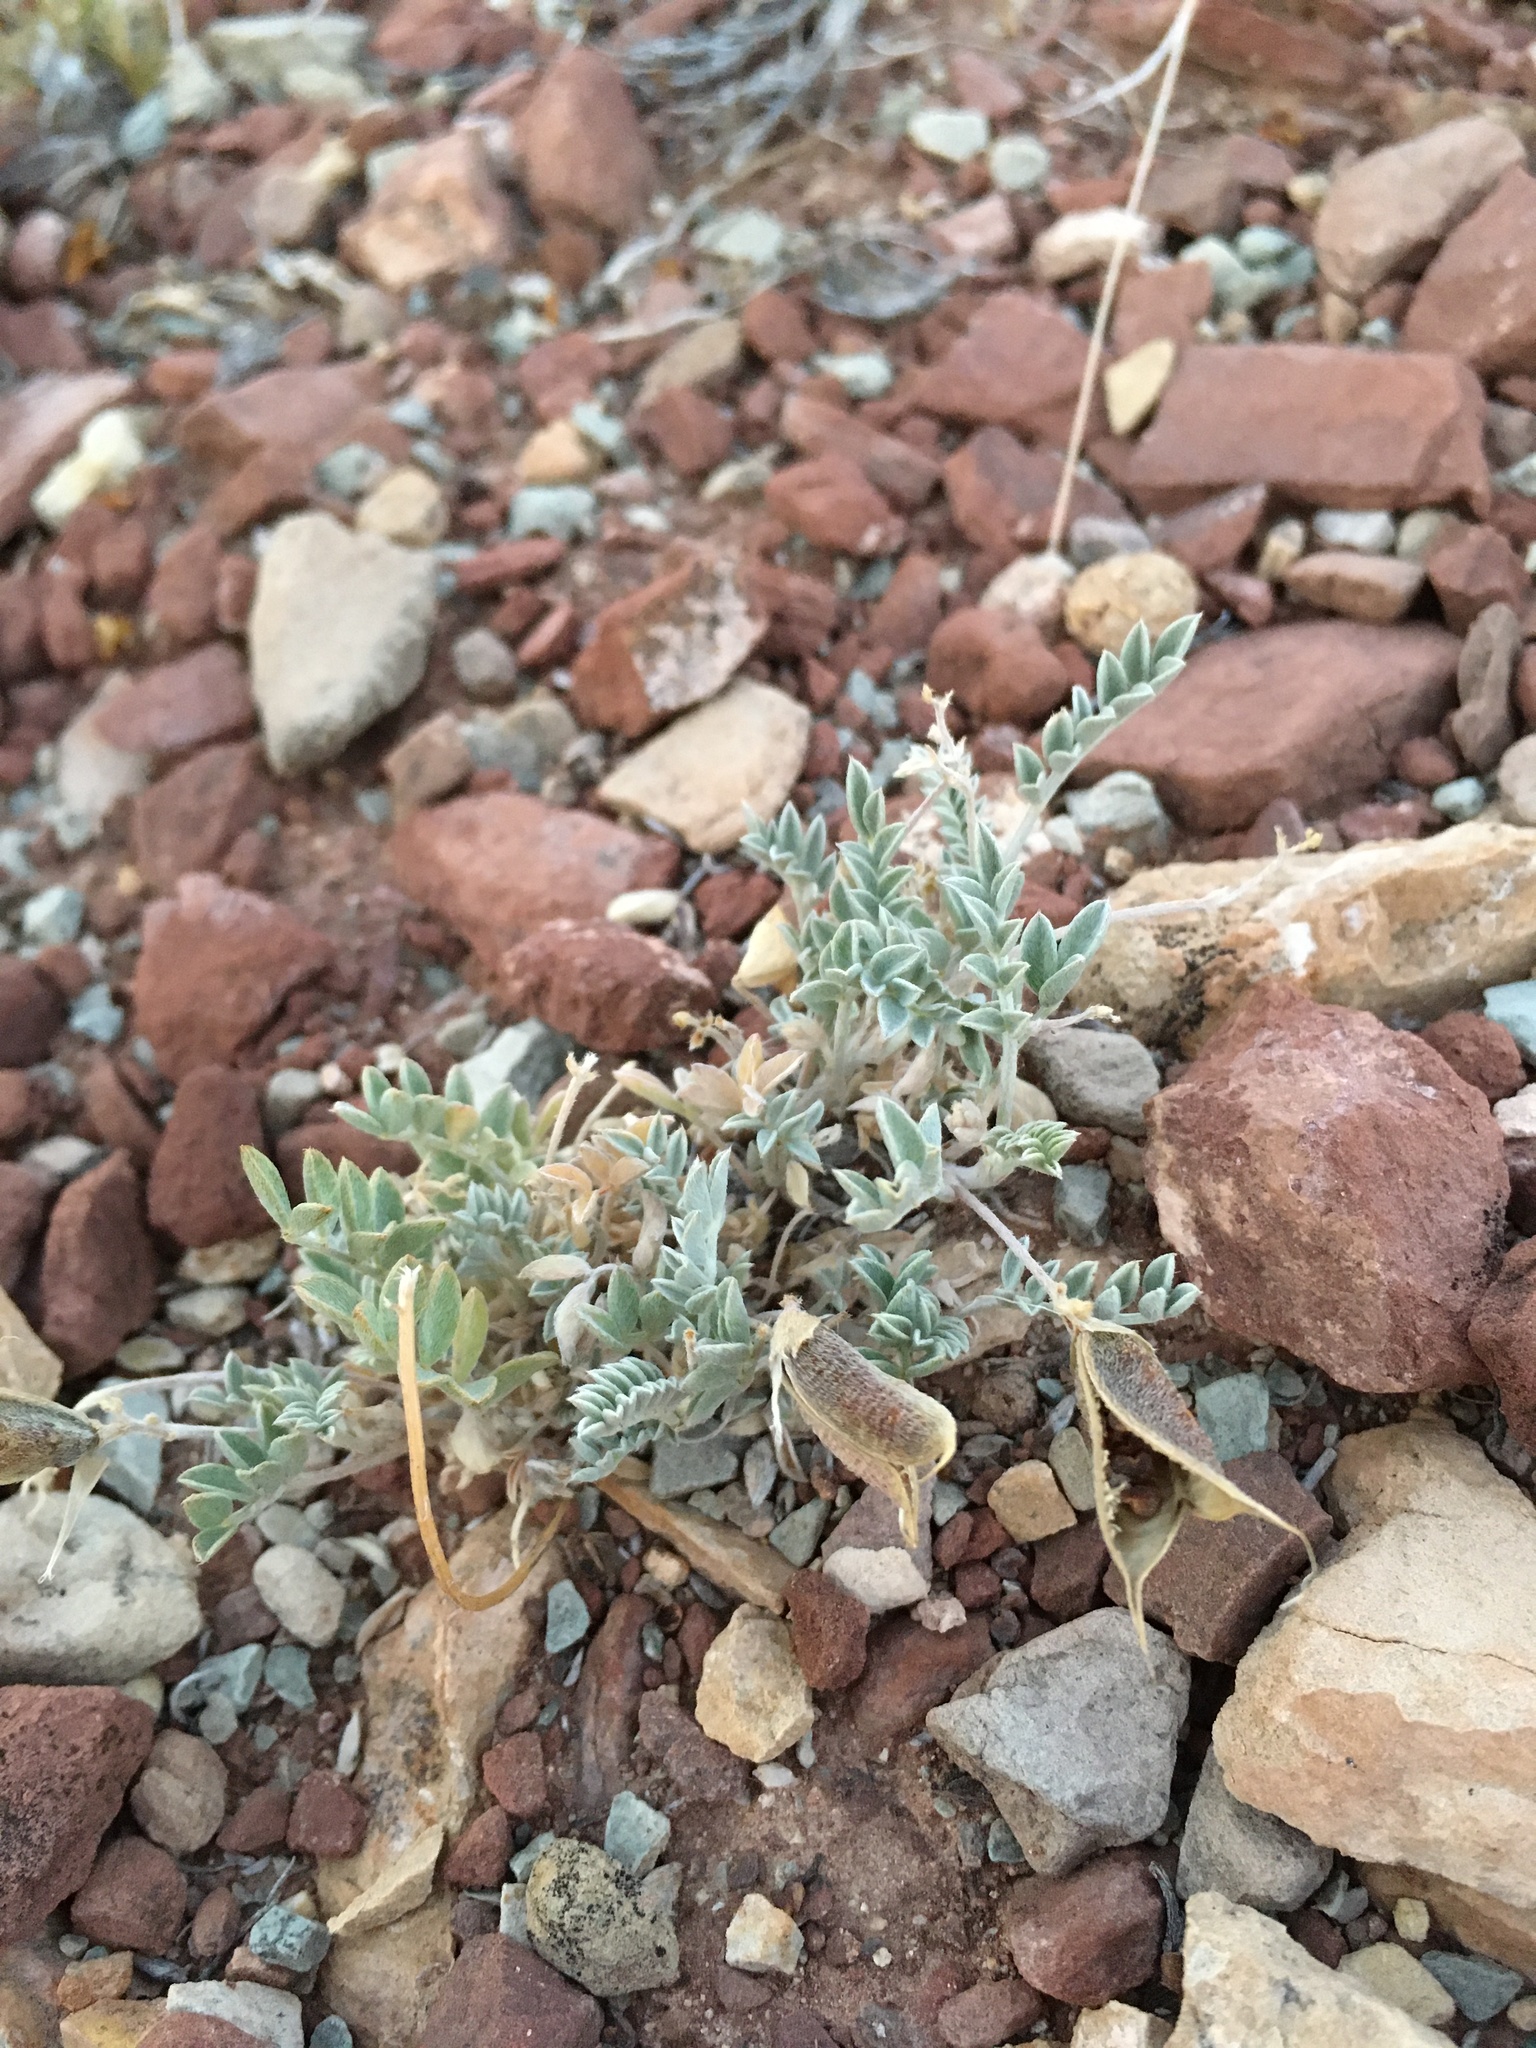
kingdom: Plantae
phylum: Tracheophyta
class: Magnoliopsida
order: Fabales
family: Fabaceae
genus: Astragalus
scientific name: Astragalus missouriensis
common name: Missouri milk-vetch
